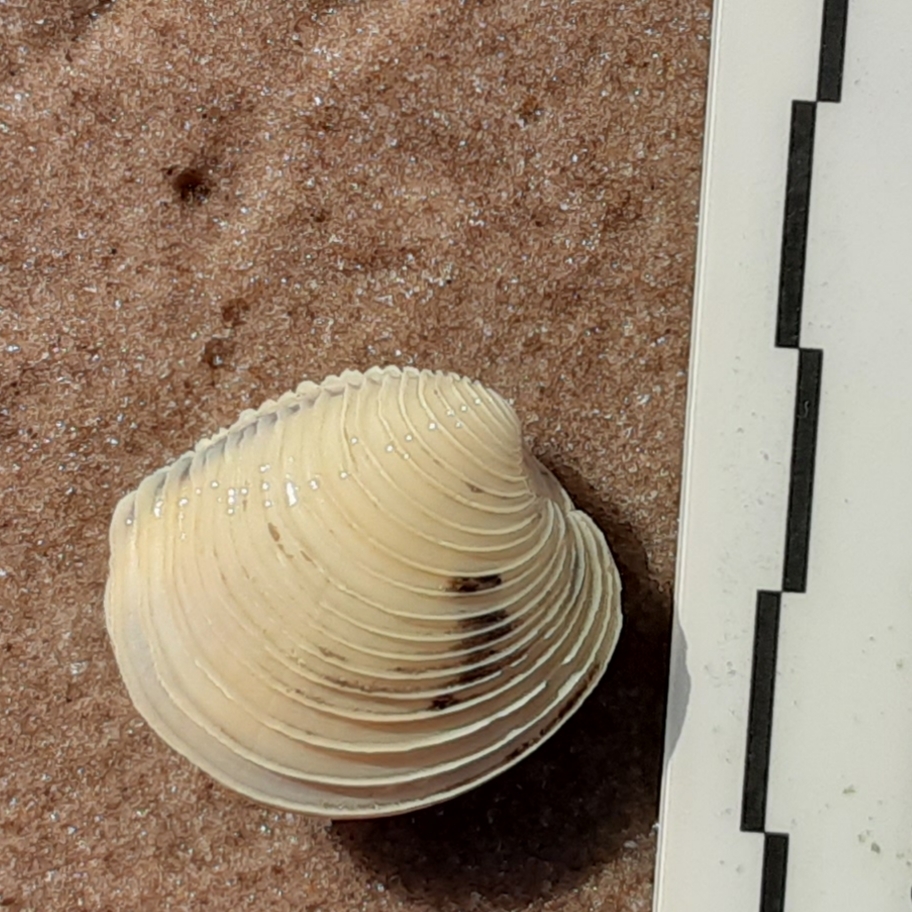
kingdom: Animalia
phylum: Mollusca
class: Bivalvia
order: Venerida
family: Veneridae
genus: Mercenaria
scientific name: Mercenaria mercenaria
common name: American hard-shelled clam
